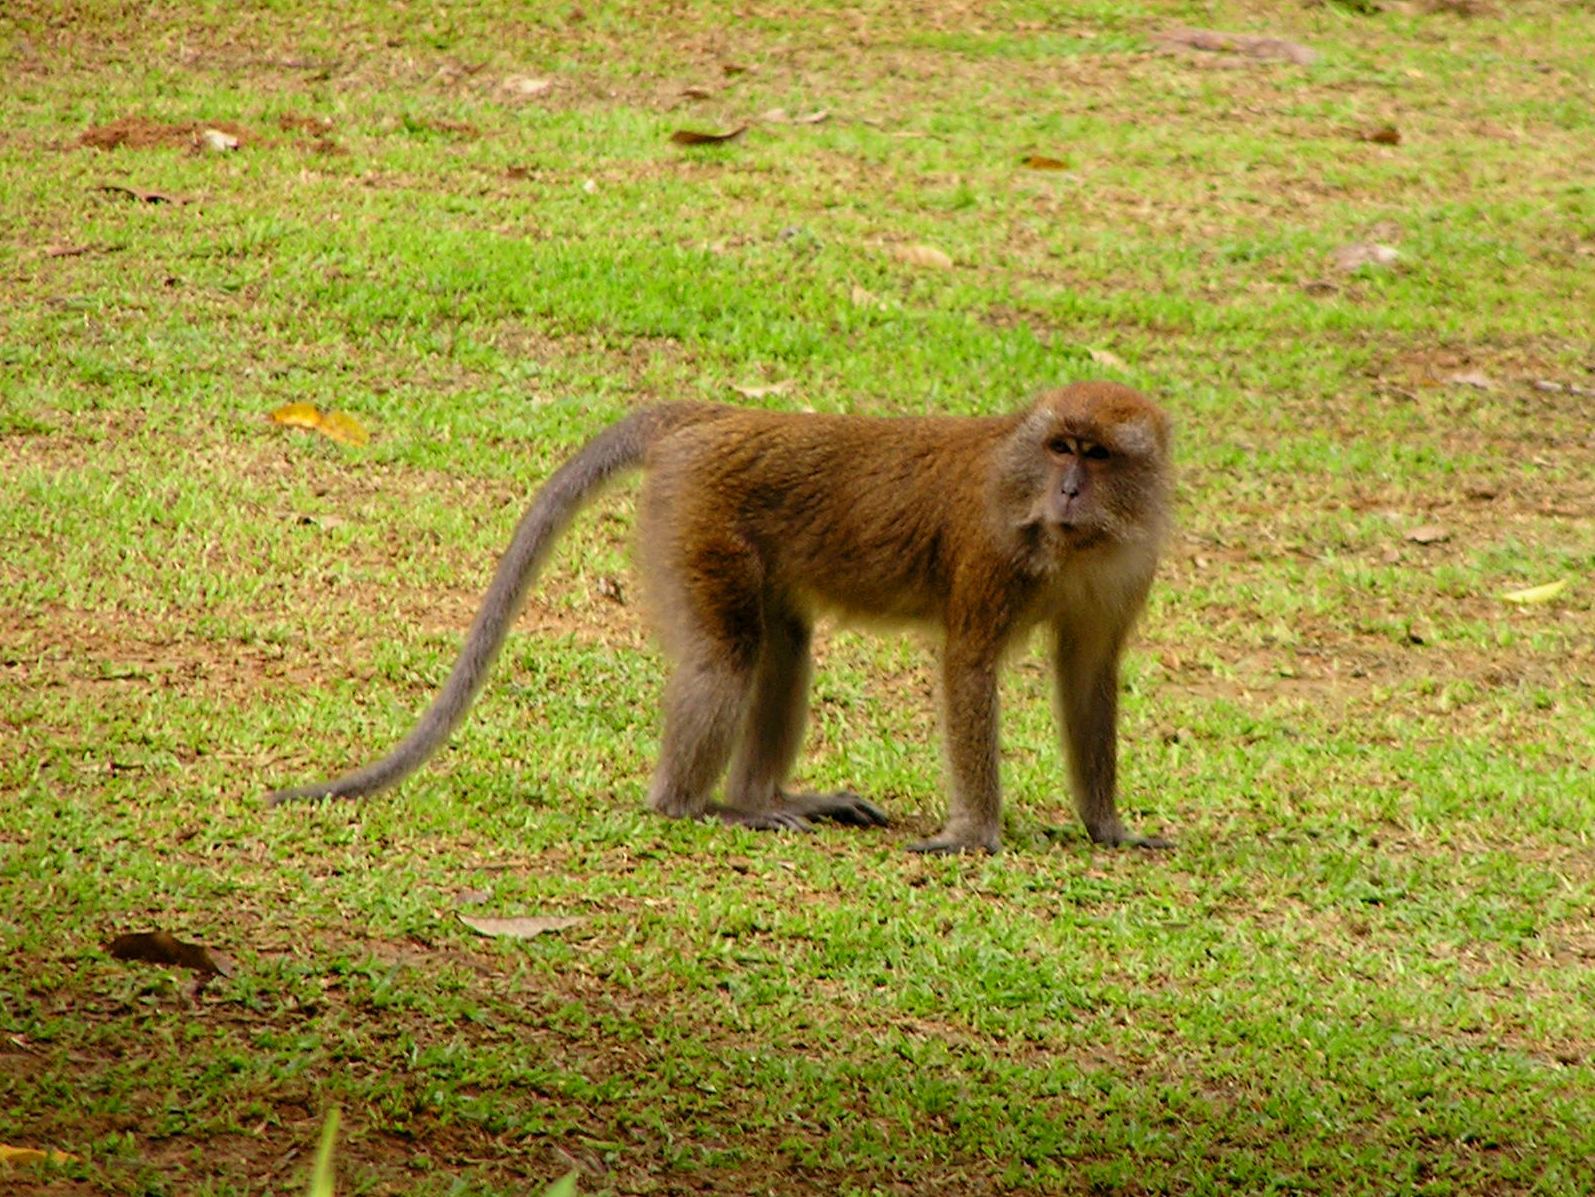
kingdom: Animalia
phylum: Chordata
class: Mammalia
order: Primates
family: Cercopithecidae
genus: Macaca
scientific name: Macaca fascicularis
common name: Crab-eating macaque
